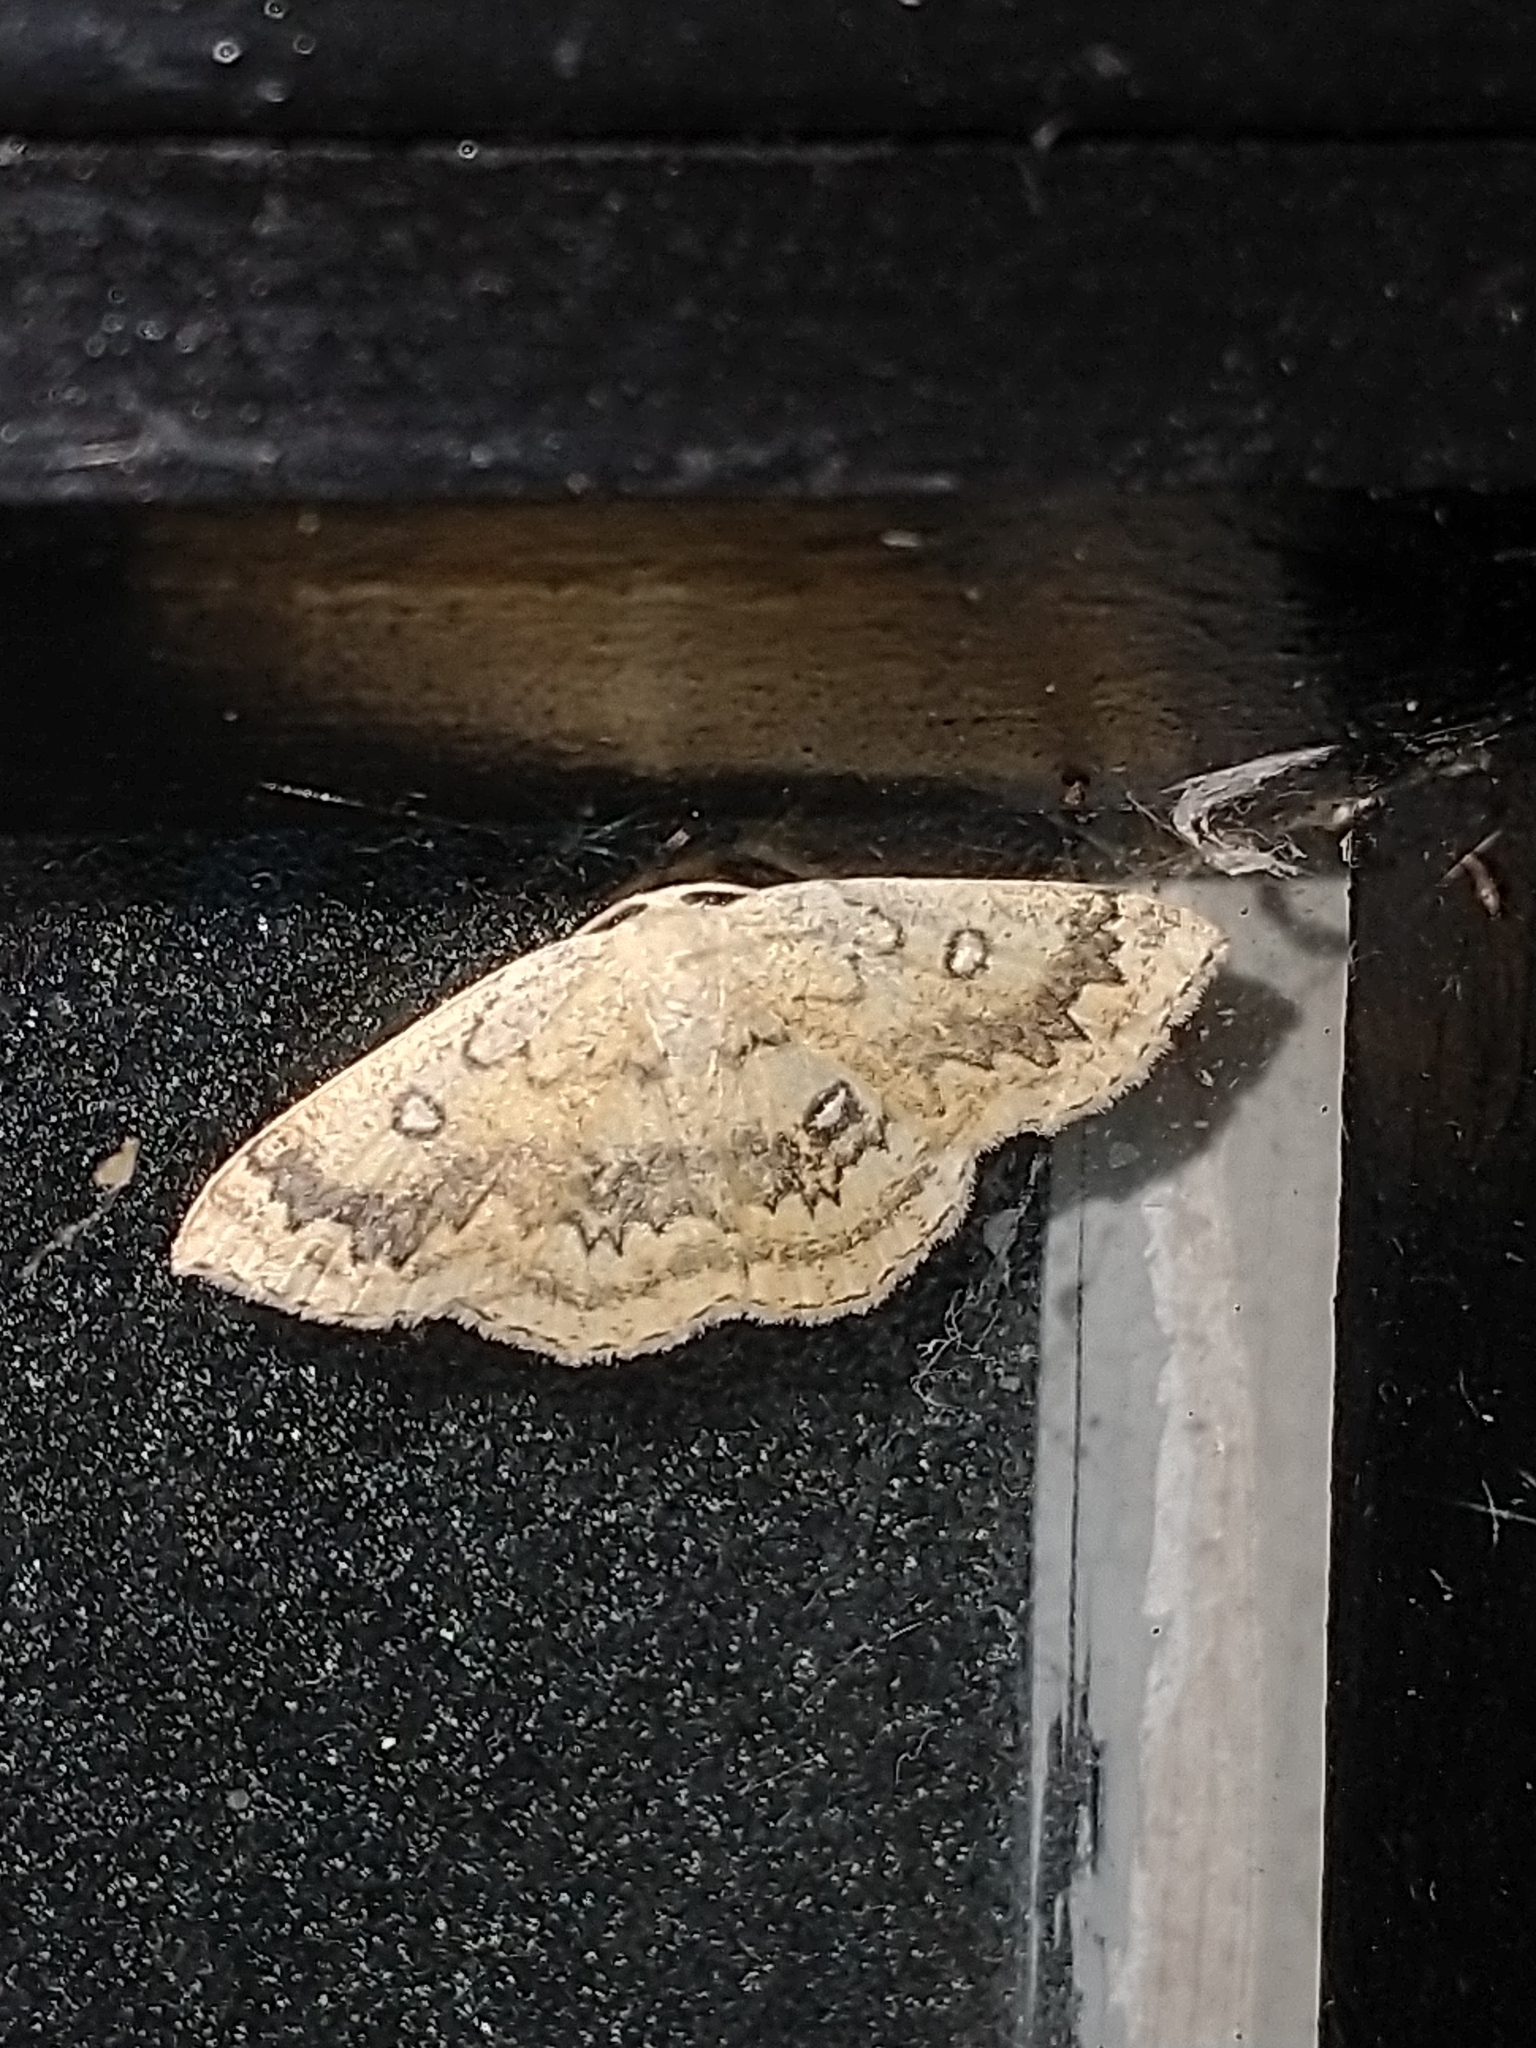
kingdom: Animalia
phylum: Arthropoda
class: Insecta
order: Lepidoptera
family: Geometridae
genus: Cyclophora
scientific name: Cyclophora annularia
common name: Mocha
